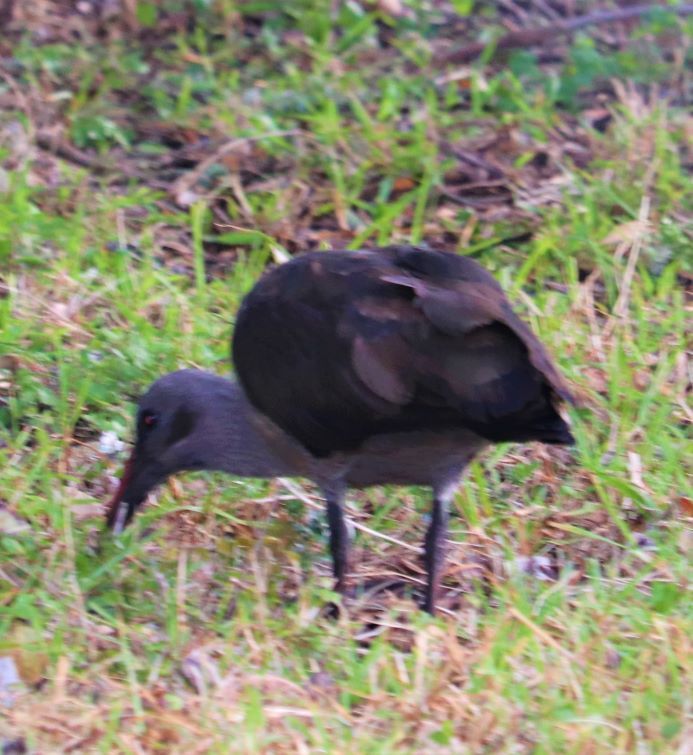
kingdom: Animalia
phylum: Chordata
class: Aves
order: Pelecaniformes
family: Threskiornithidae
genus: Bostrychia
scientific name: Bostrychia hagedash
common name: Hadada ibis
